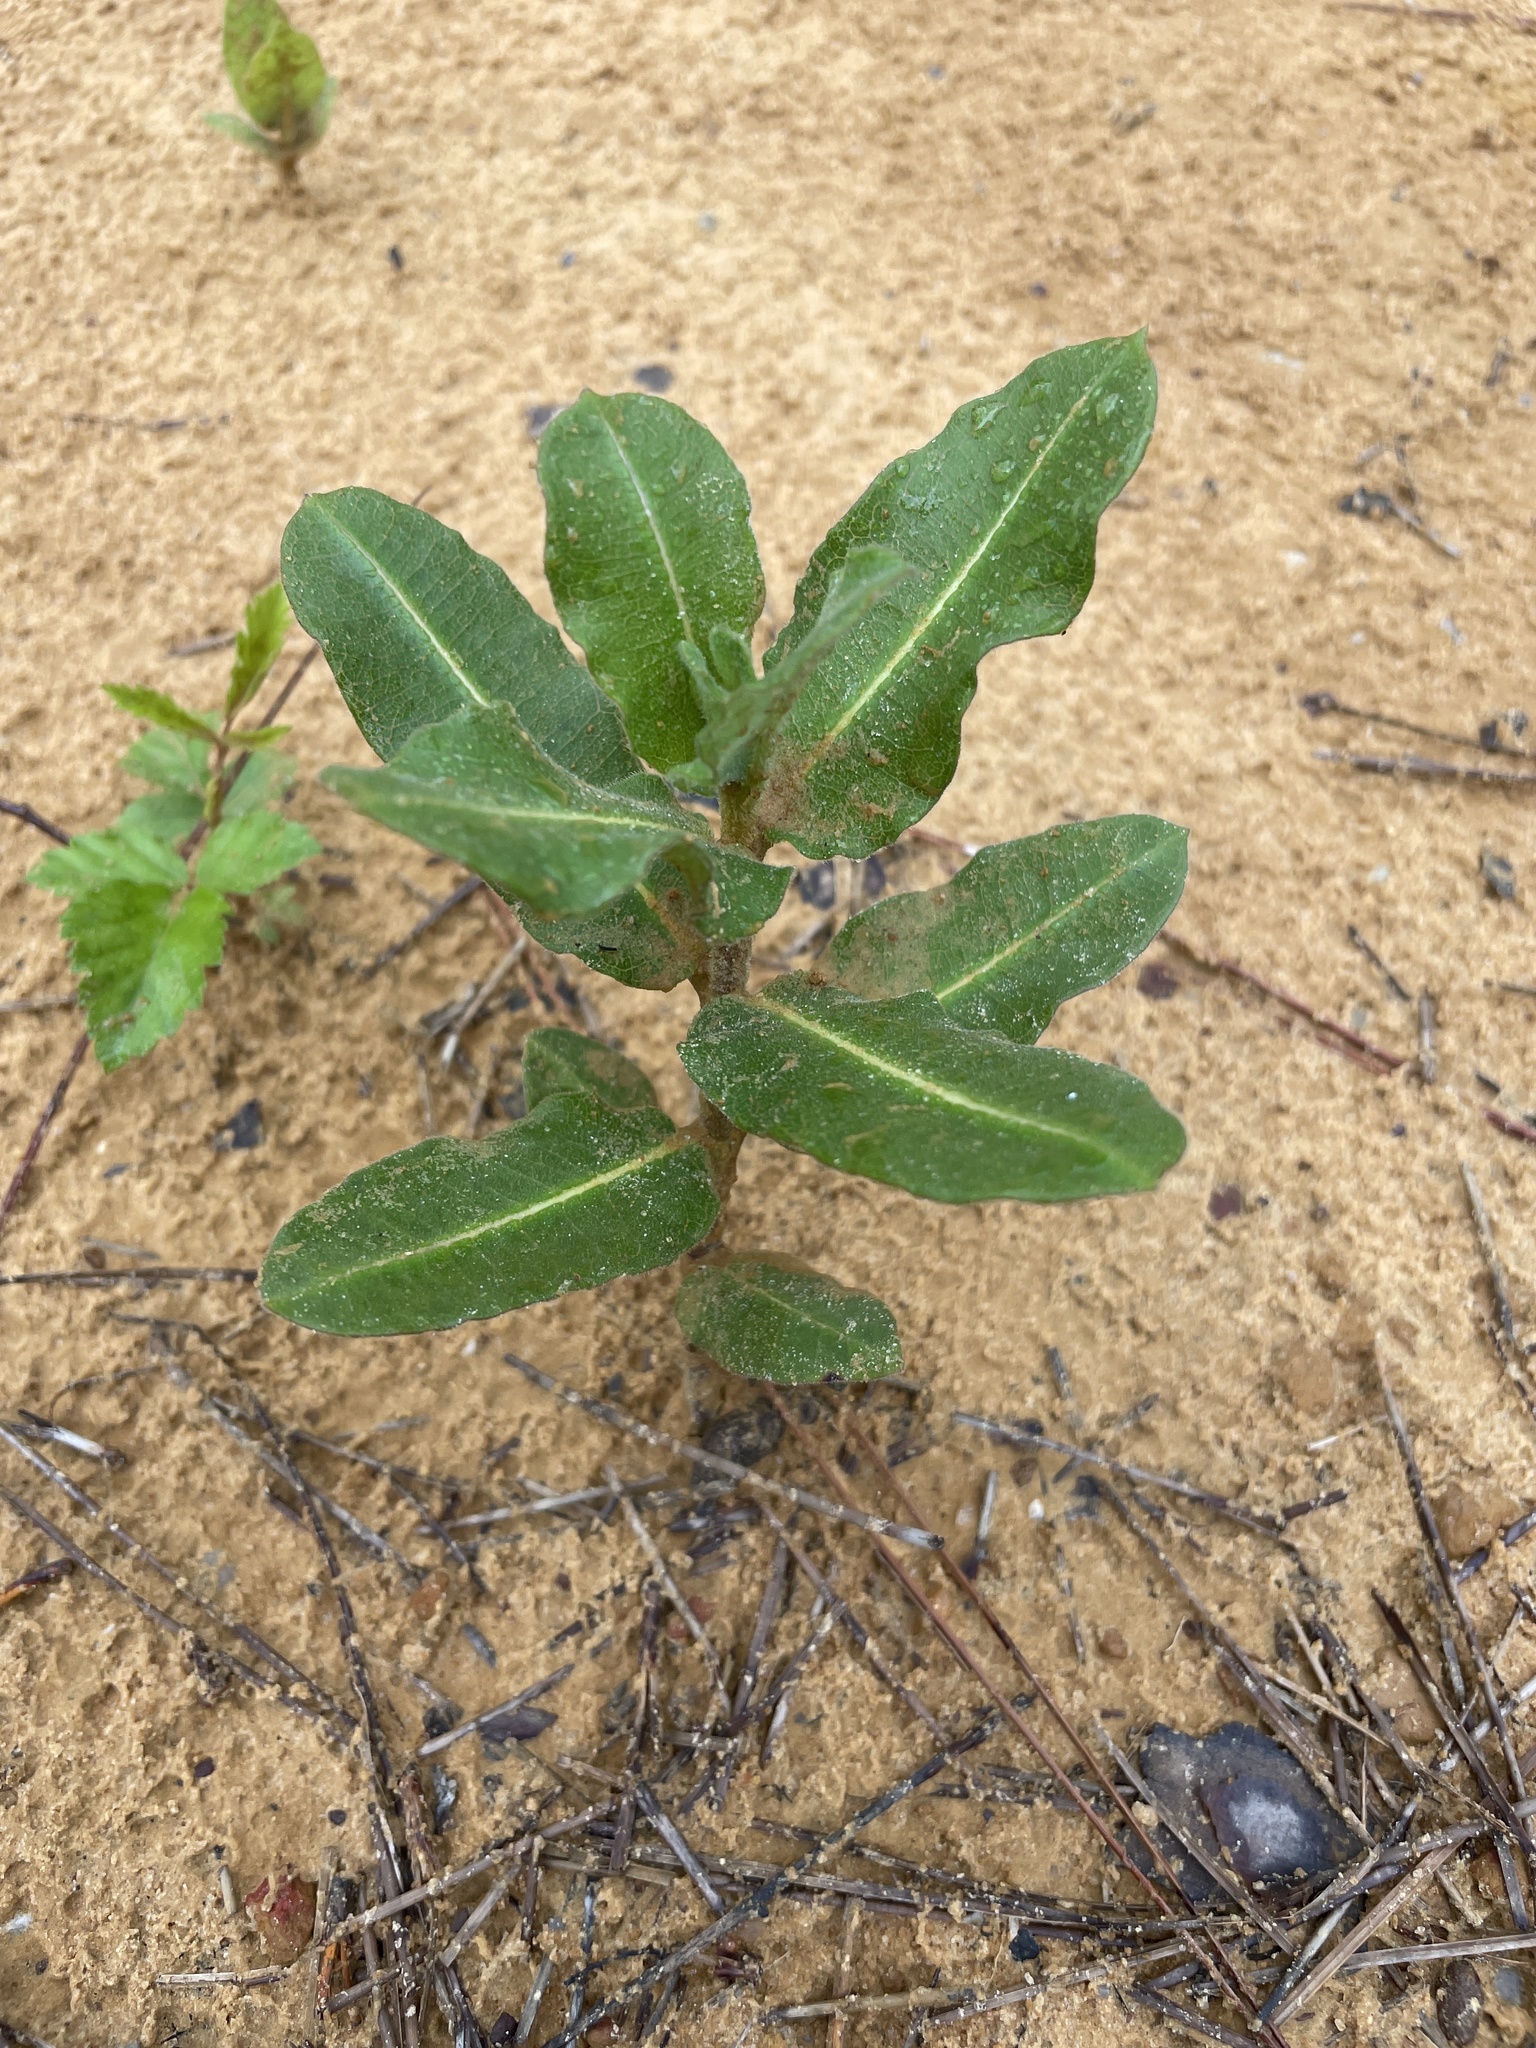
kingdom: Plantae
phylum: Tracheophyta
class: Magnoliopsida
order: Gentianales
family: Apocynaceae
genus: Asclepias
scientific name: Asclepias obovata
